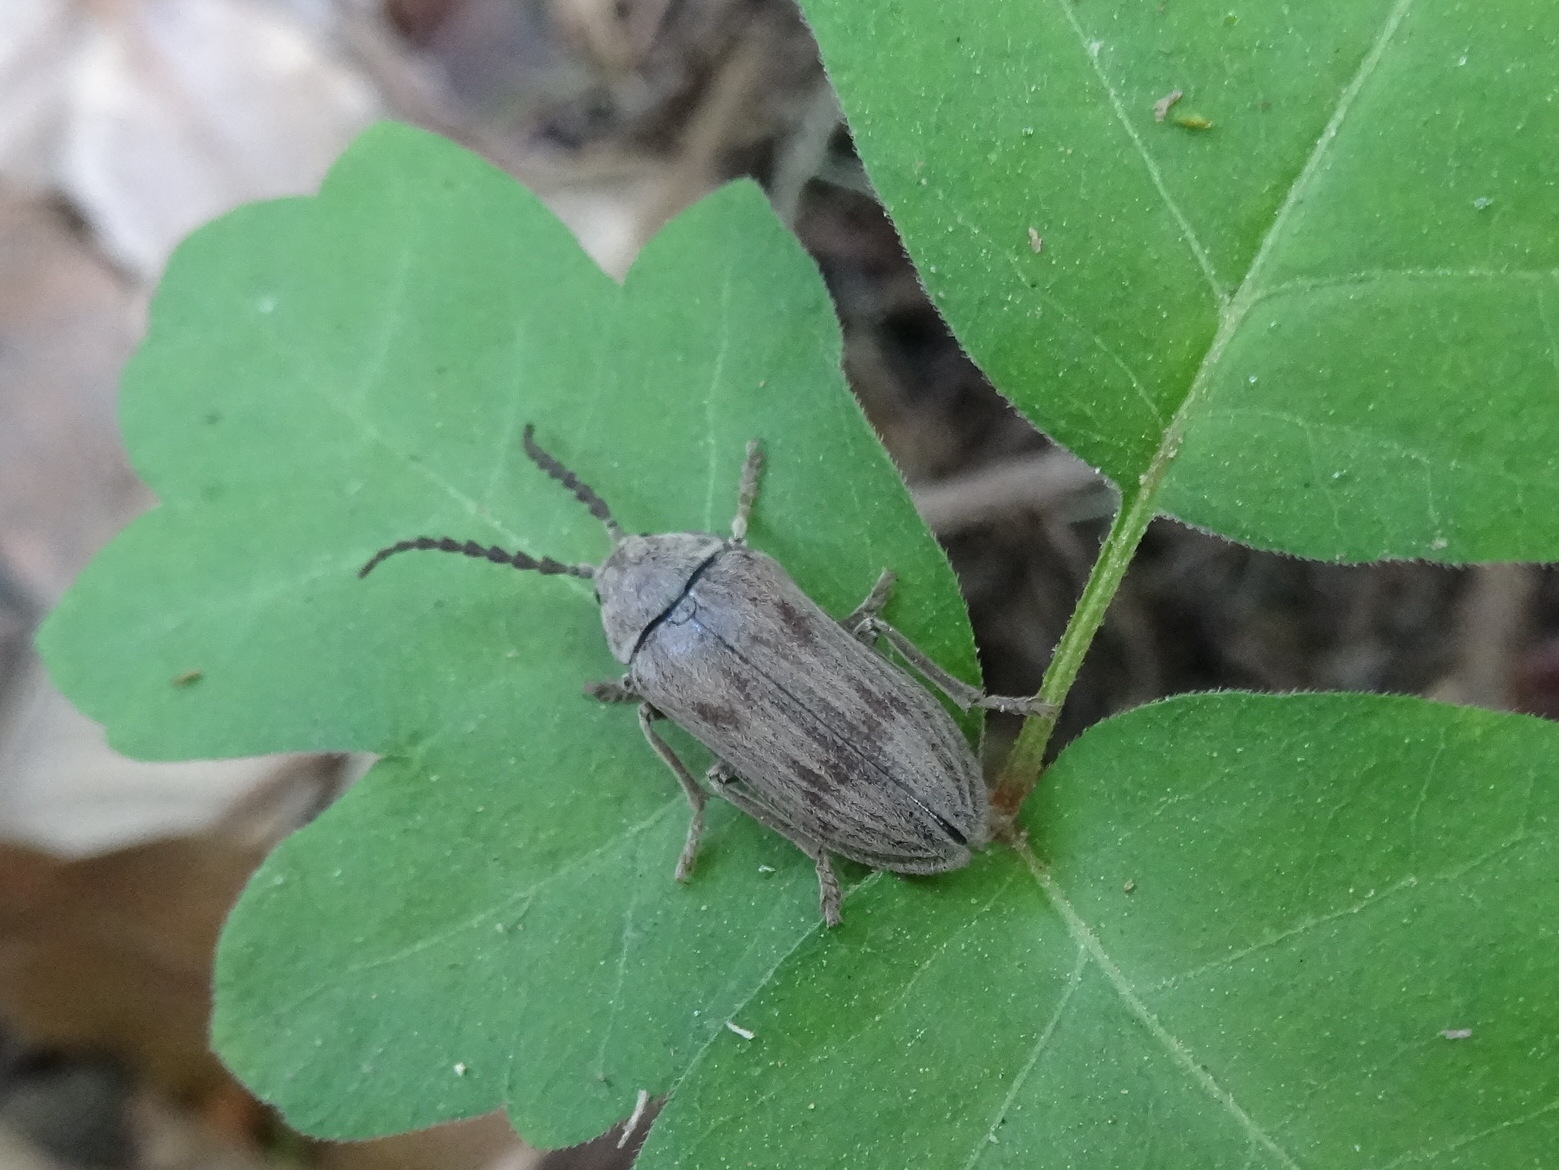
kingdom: Animalia
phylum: Arthropoda
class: Insecta
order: Coleoptera
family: Dascillidae
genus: Dascillus
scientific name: Dascillus davidsoni
